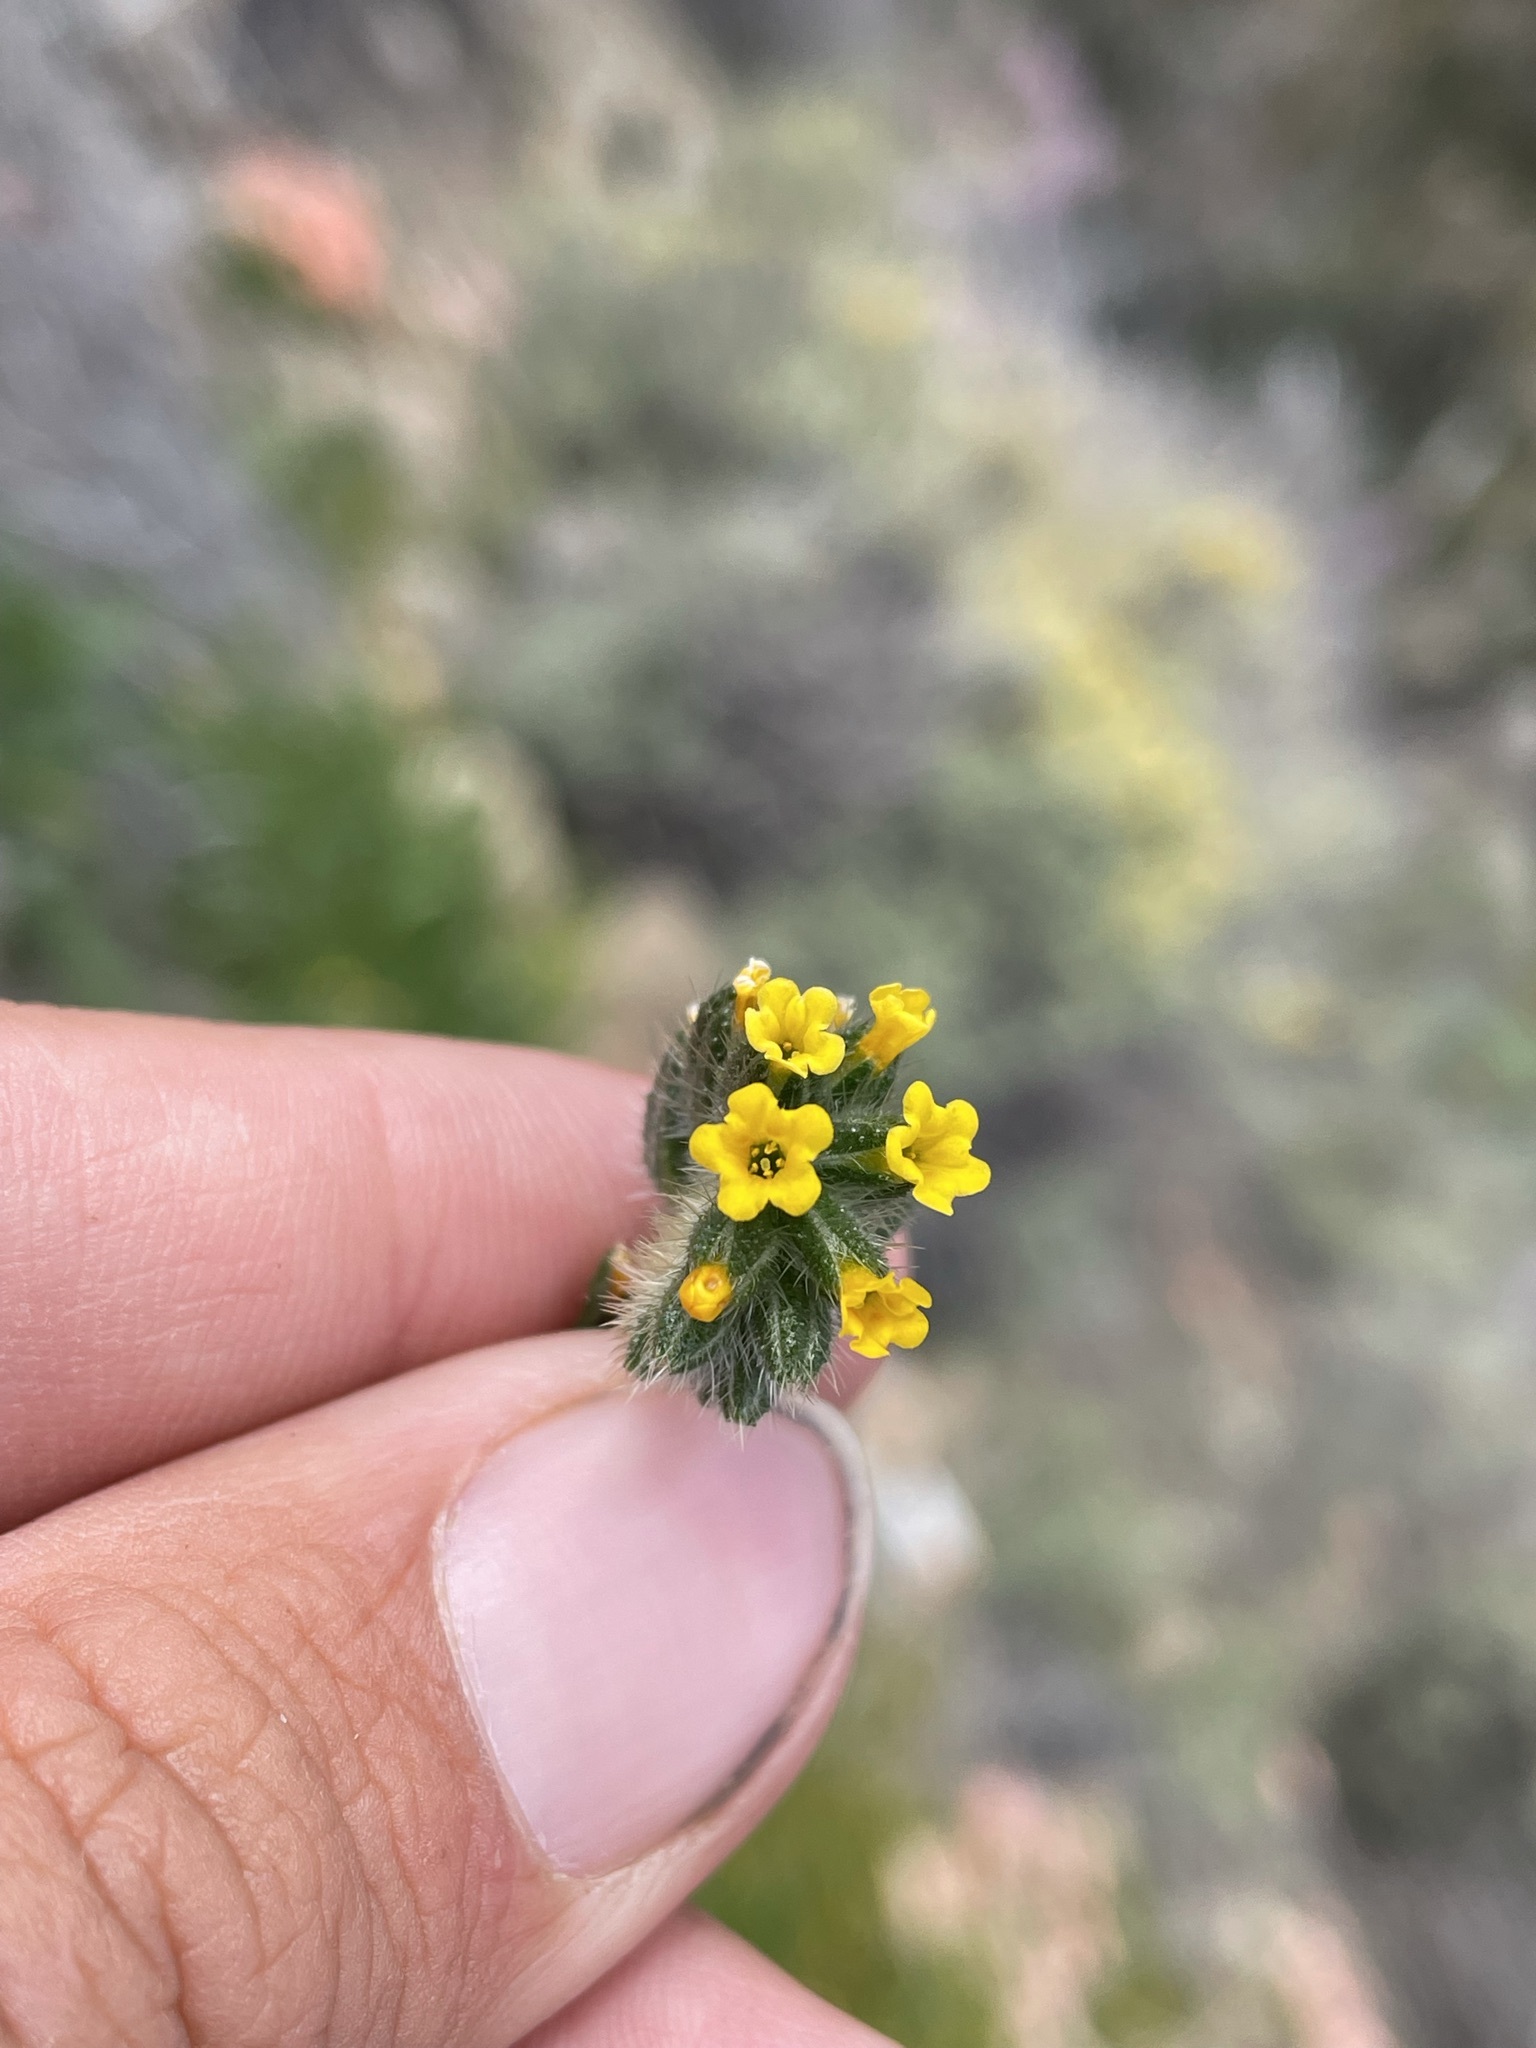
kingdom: Plantae
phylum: Tracheophyta
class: Magnoliopsida
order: Boraginales
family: Boraginaceae
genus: Amsinckia
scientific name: Amsinckia menziesii
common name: Menzies' fiddleneck
